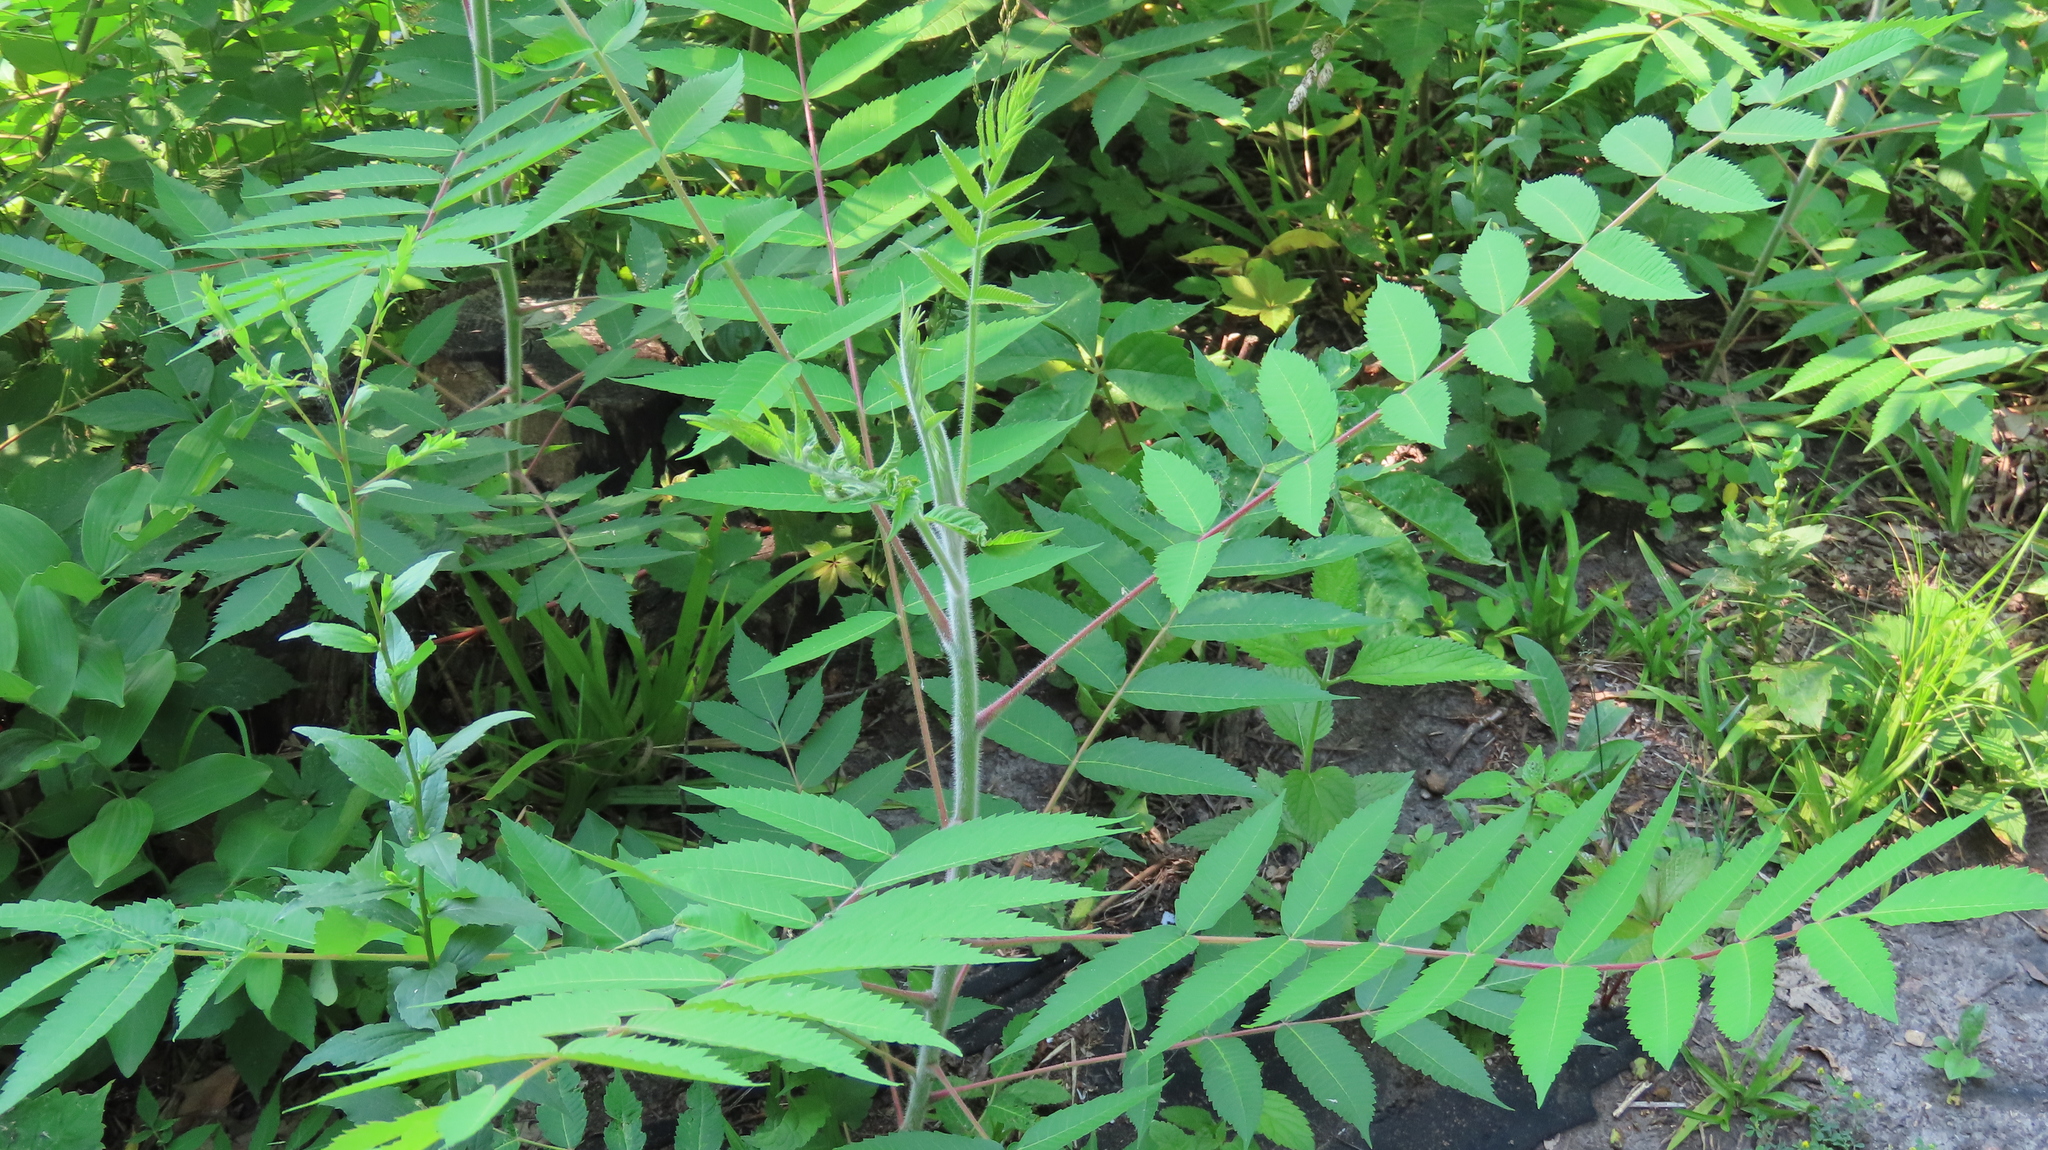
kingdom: Plantae
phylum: Tracheophyta
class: Magnoliopsida
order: Sapindales
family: Anacardiaceae
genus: Rhus
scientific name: Rhus typhina
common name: Staghorn sumac
